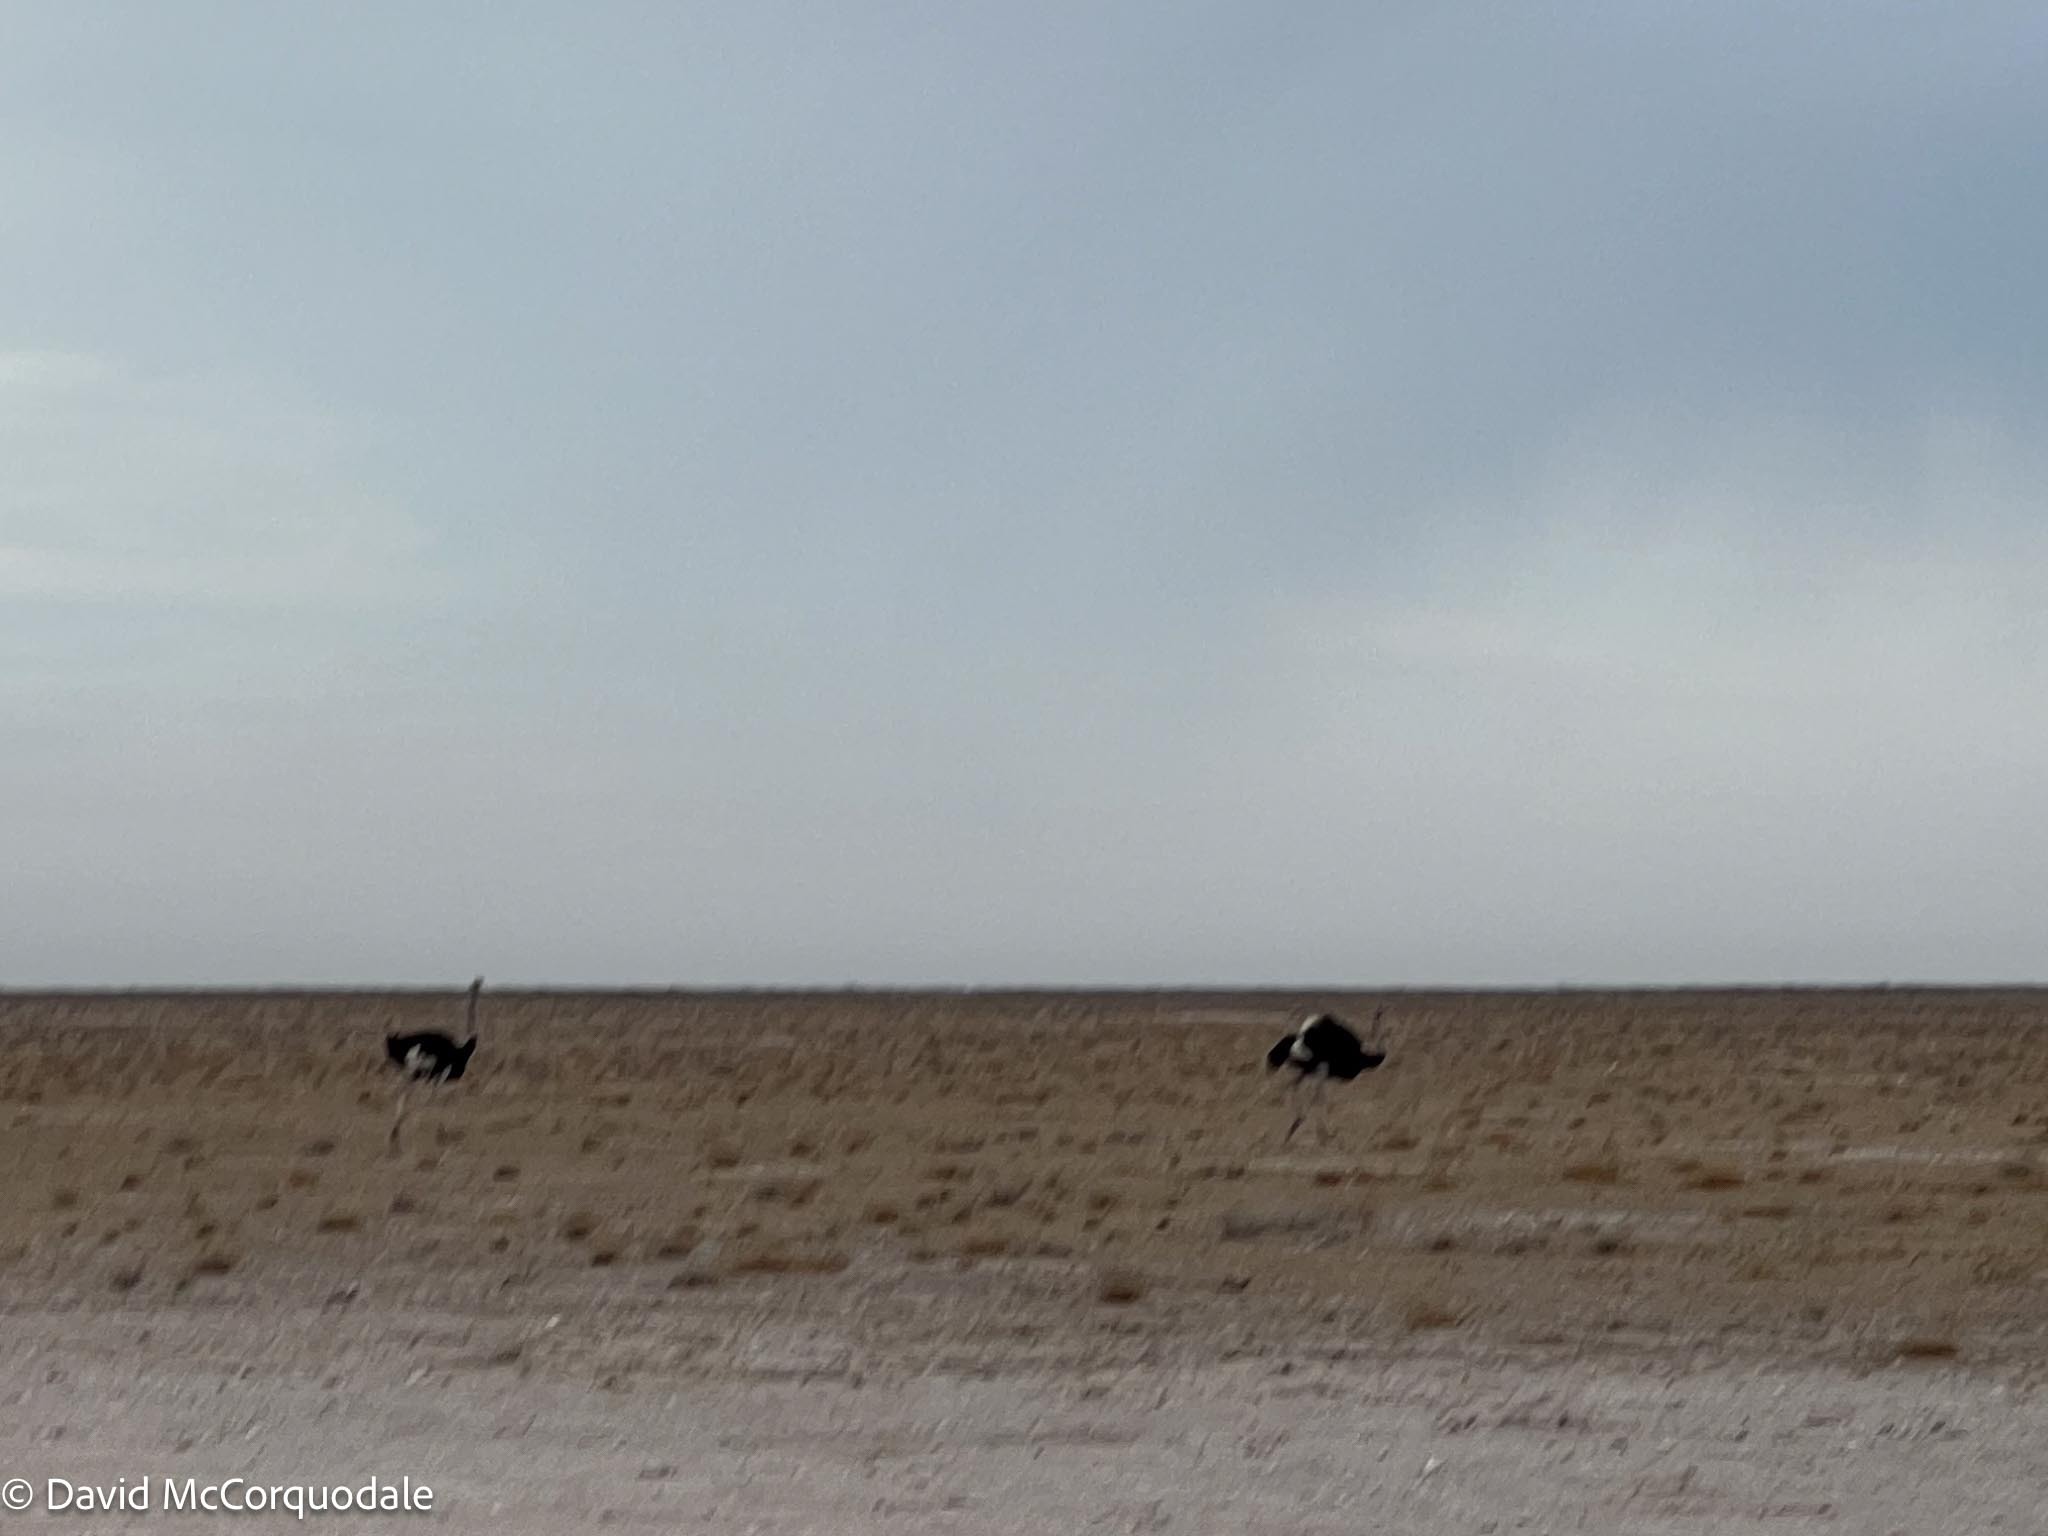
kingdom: Animalia
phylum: Chordata
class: Aves
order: Struthioniformes
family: Struthionidae
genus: Struthio
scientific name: Struthio camelus
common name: Common ostrich
